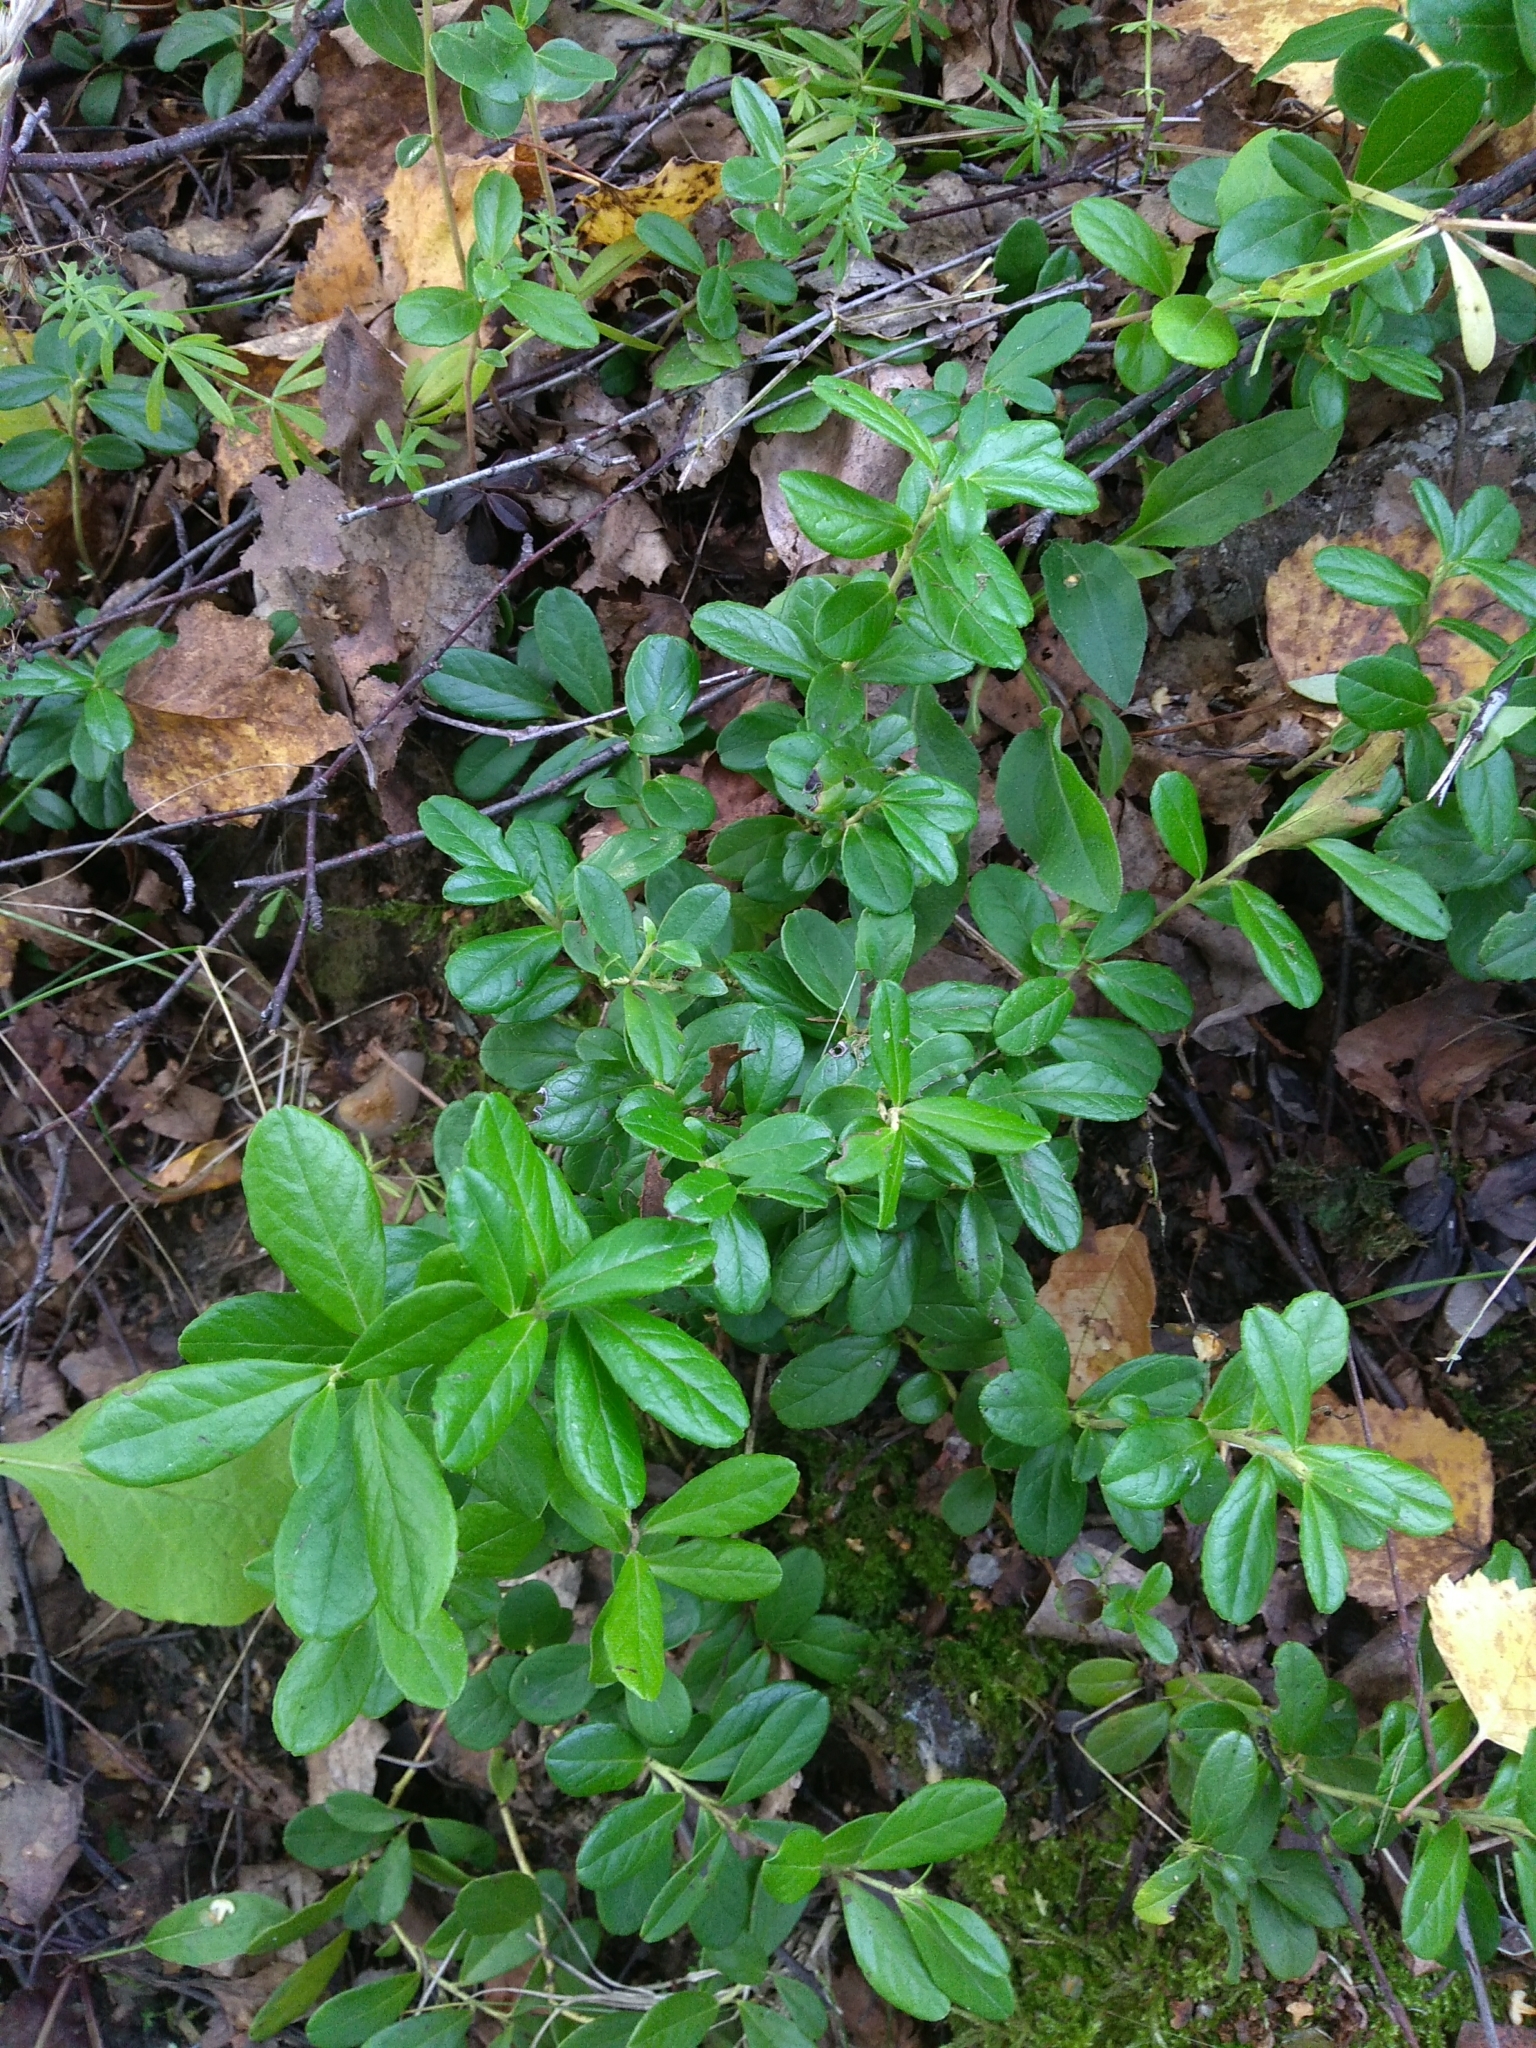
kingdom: Plantae
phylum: Tracheophyta
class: Magnoliopsida
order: Ericales
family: Ericaceae
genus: Vaccinium
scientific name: Vaccinium vitis-idaea
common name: Cowberry
